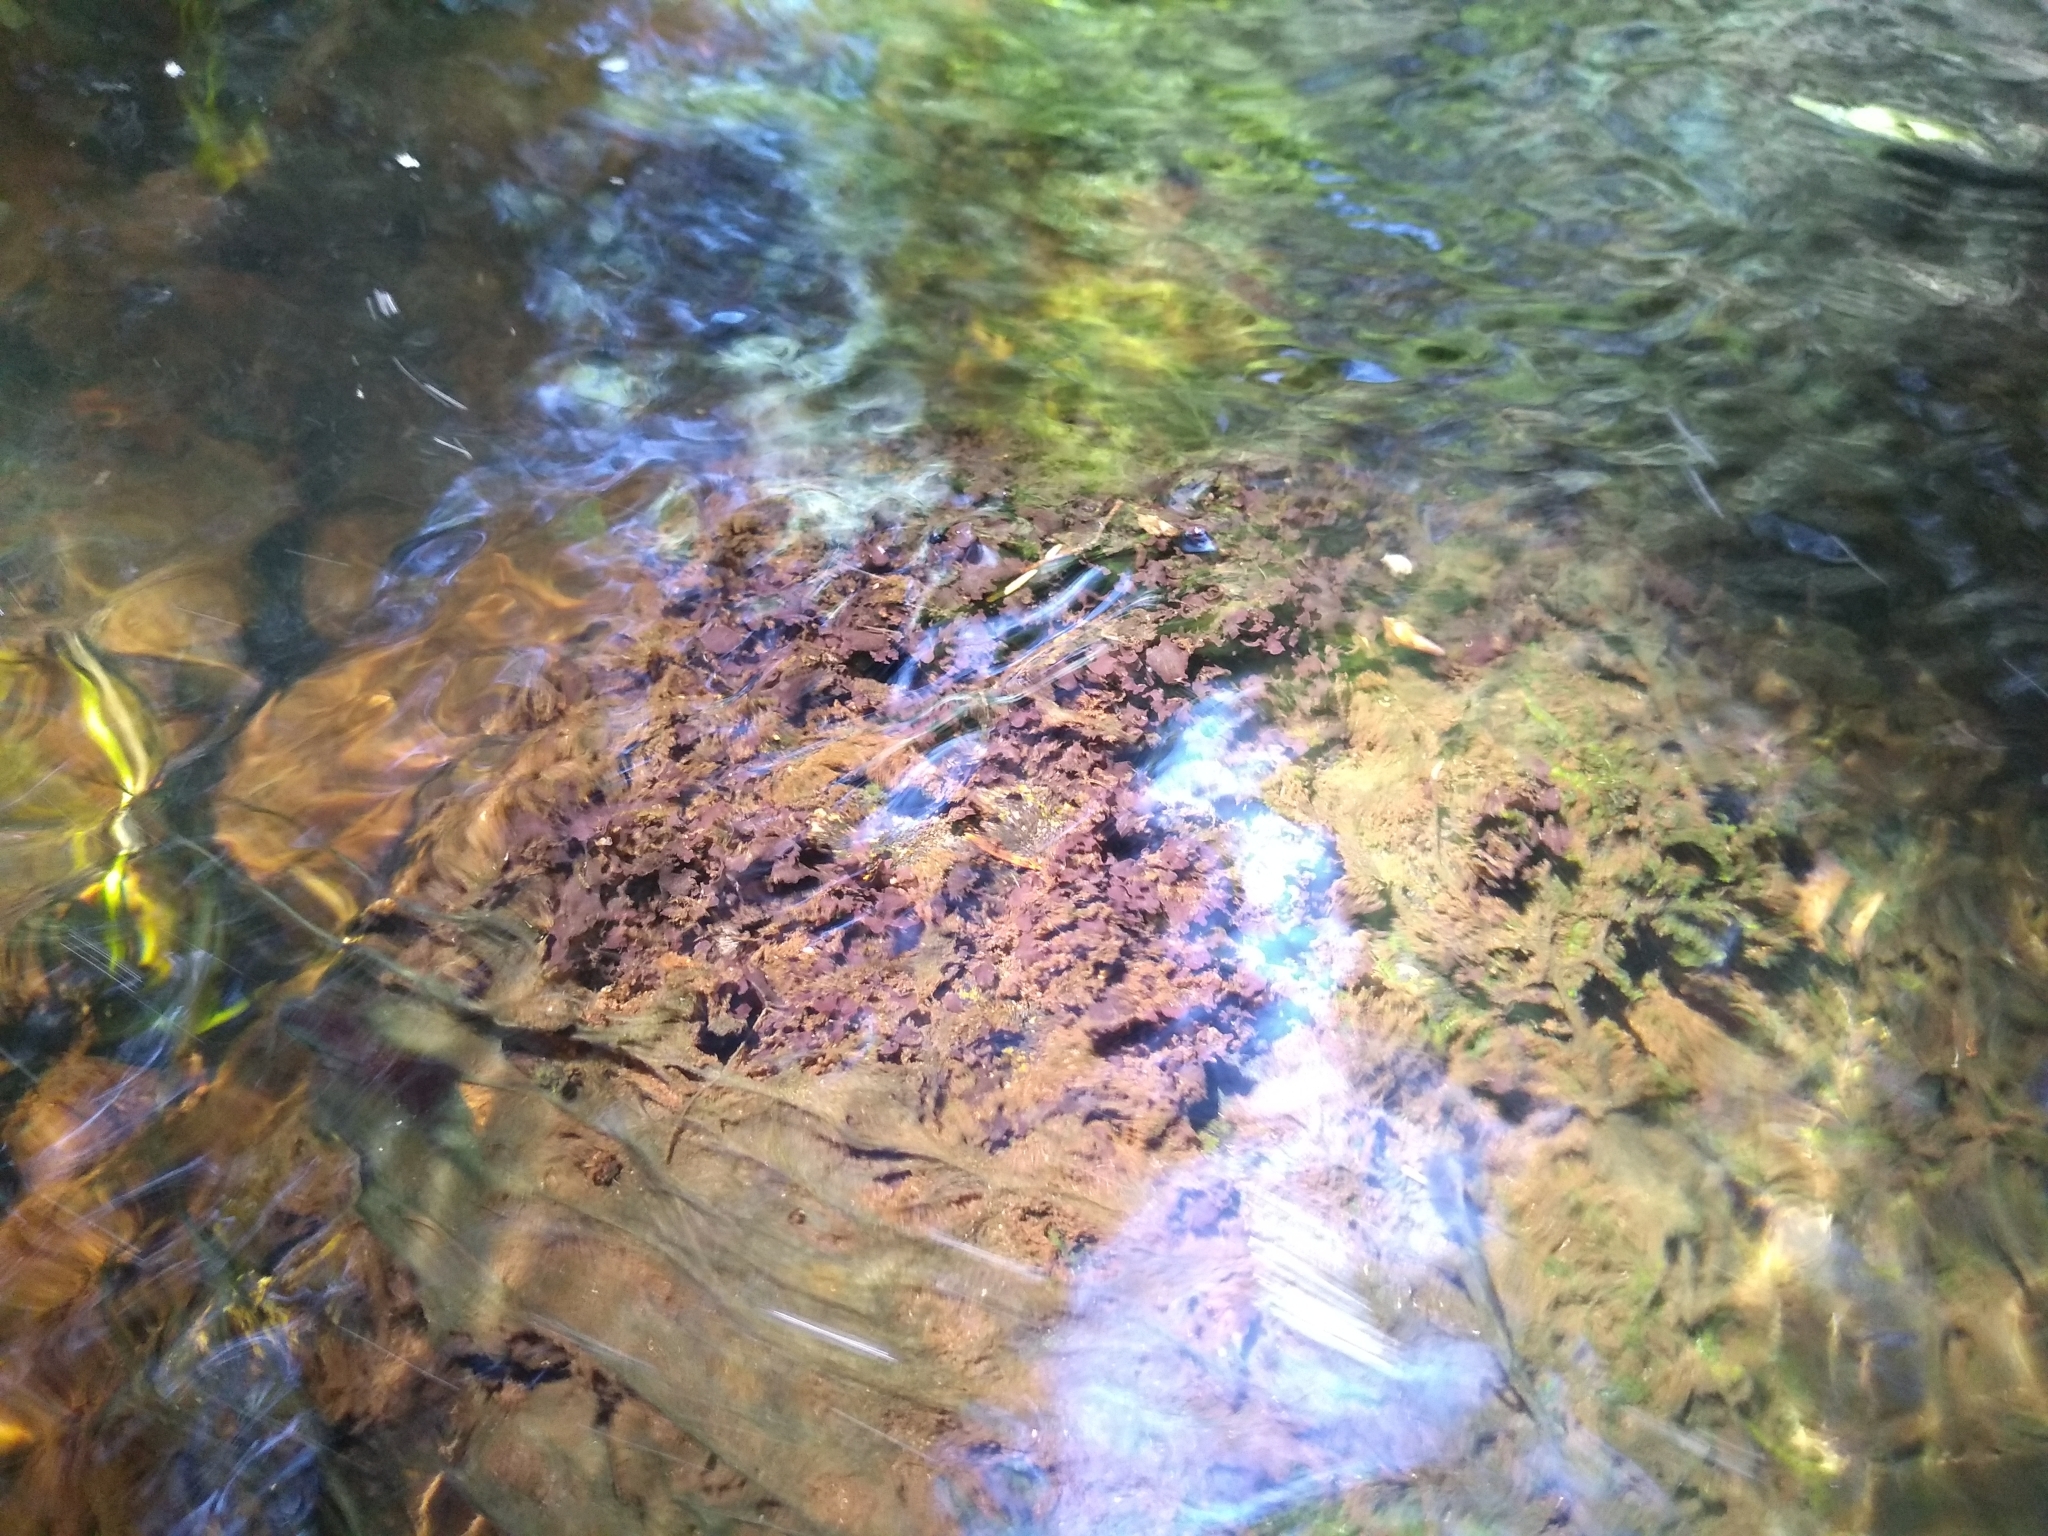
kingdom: Fungi
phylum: Ascomycota
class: Lecanoromycetes
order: Peltigerales
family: Peltigeraceae
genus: Peltigera
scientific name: Peltigera hydrothyria
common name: Aquatic pelt lichen
